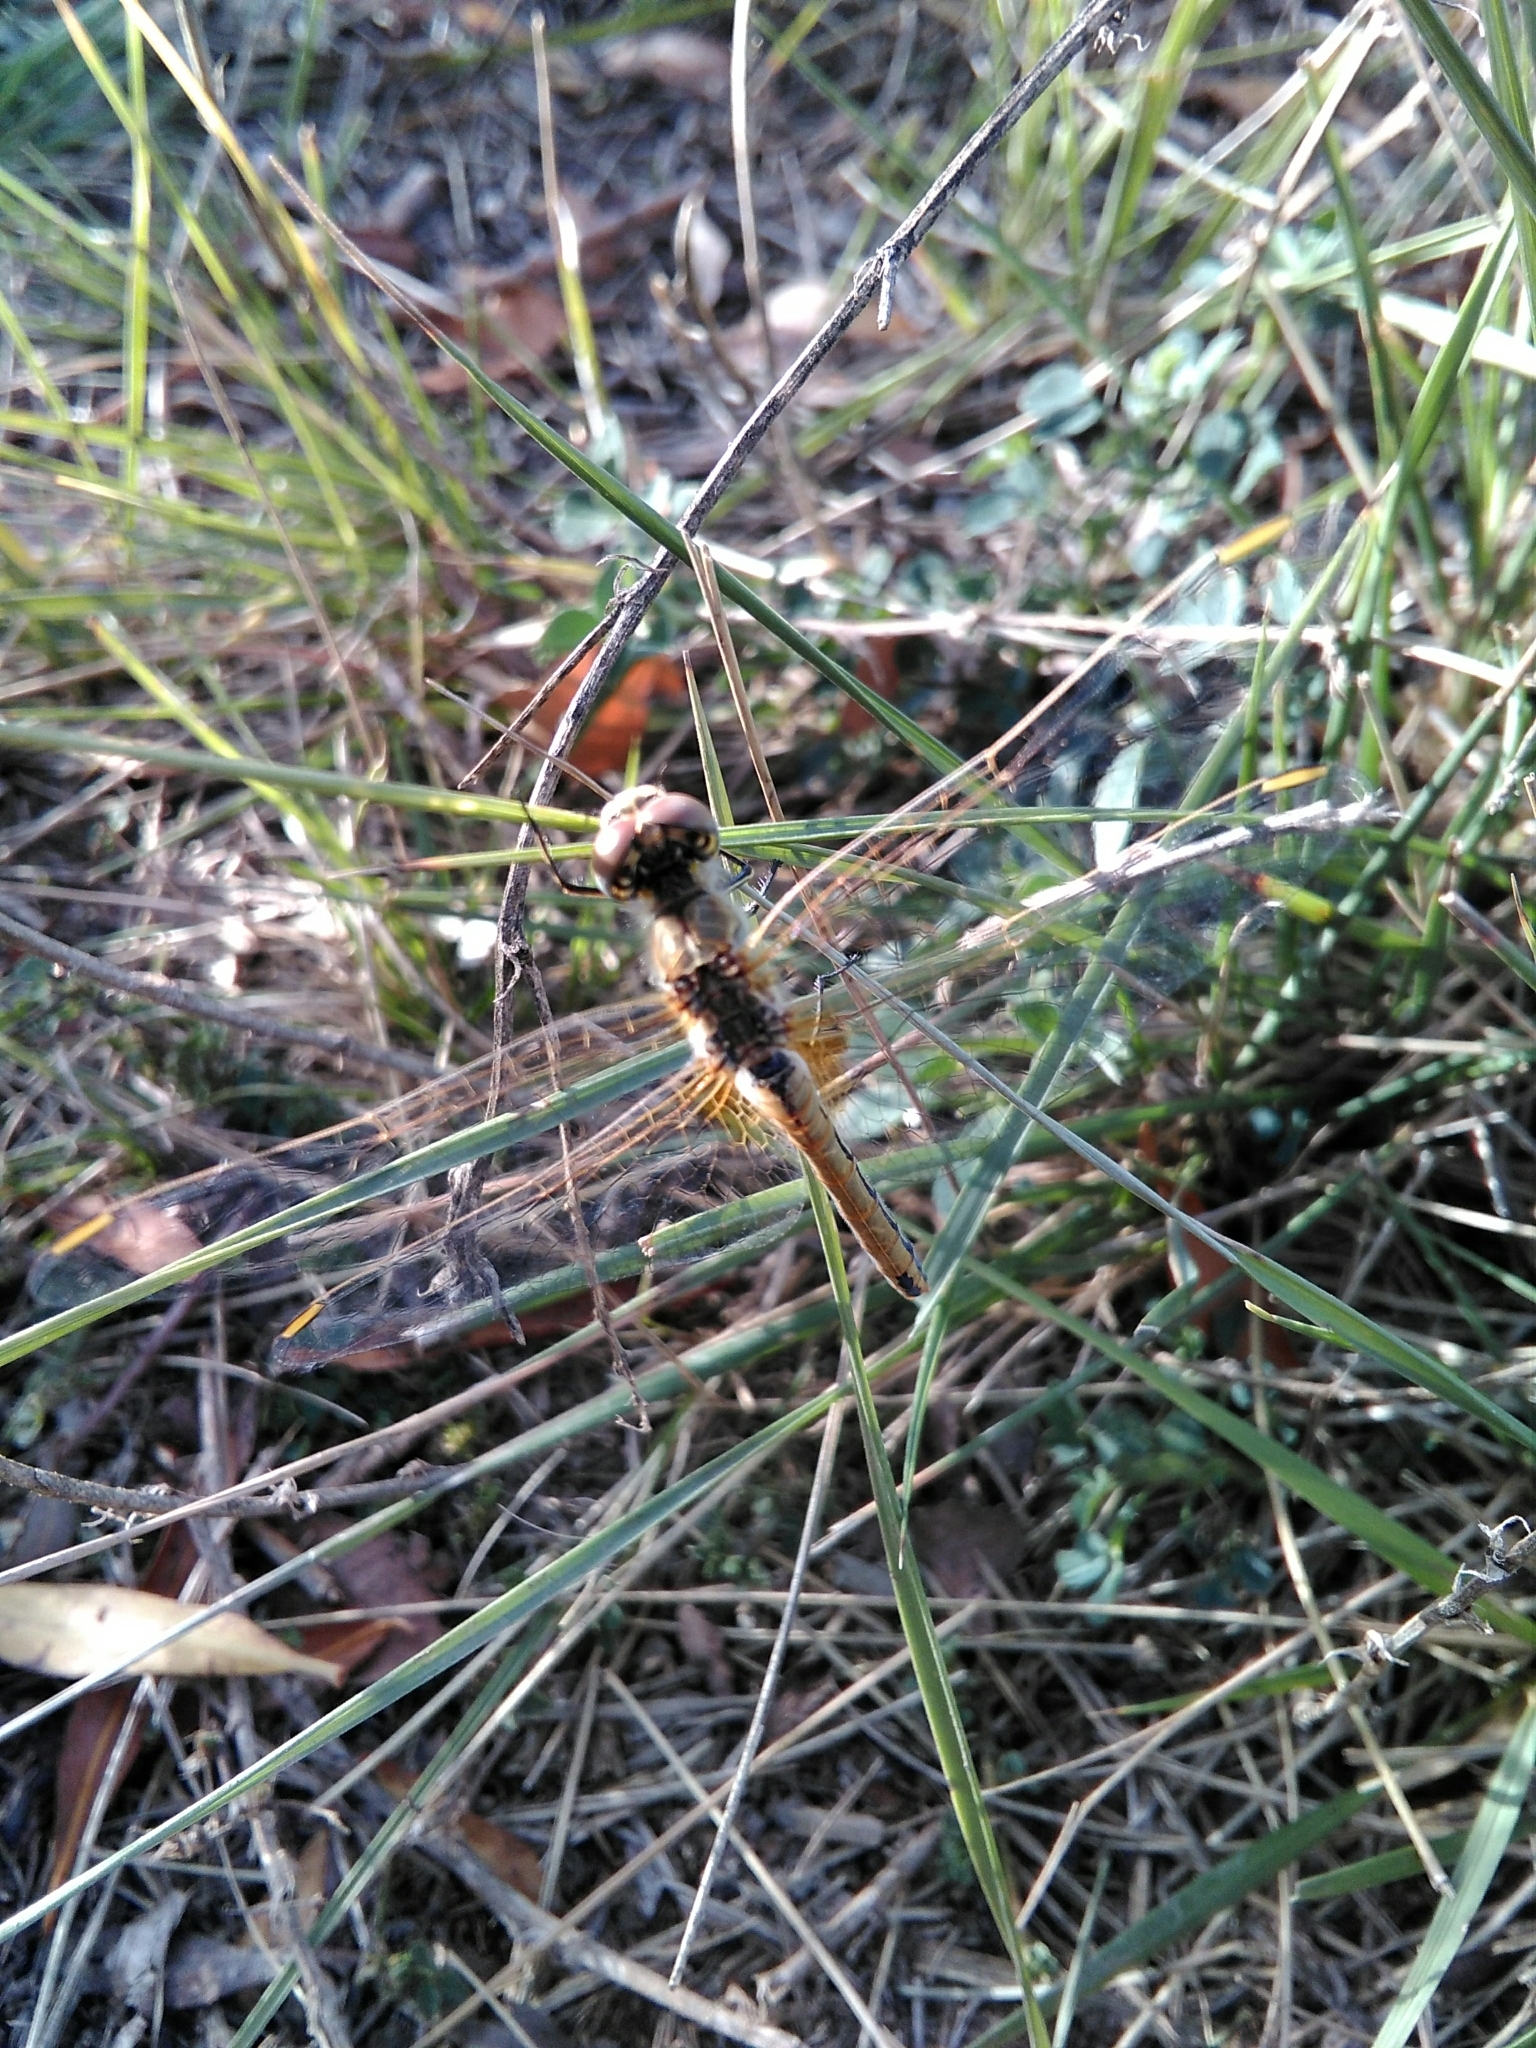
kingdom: Animalia
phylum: Arthropoda
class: Insecta
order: Odonata
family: Libellulidae
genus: Sympetrum
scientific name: Sympetrum fonscolombii
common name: Red-veined darter
